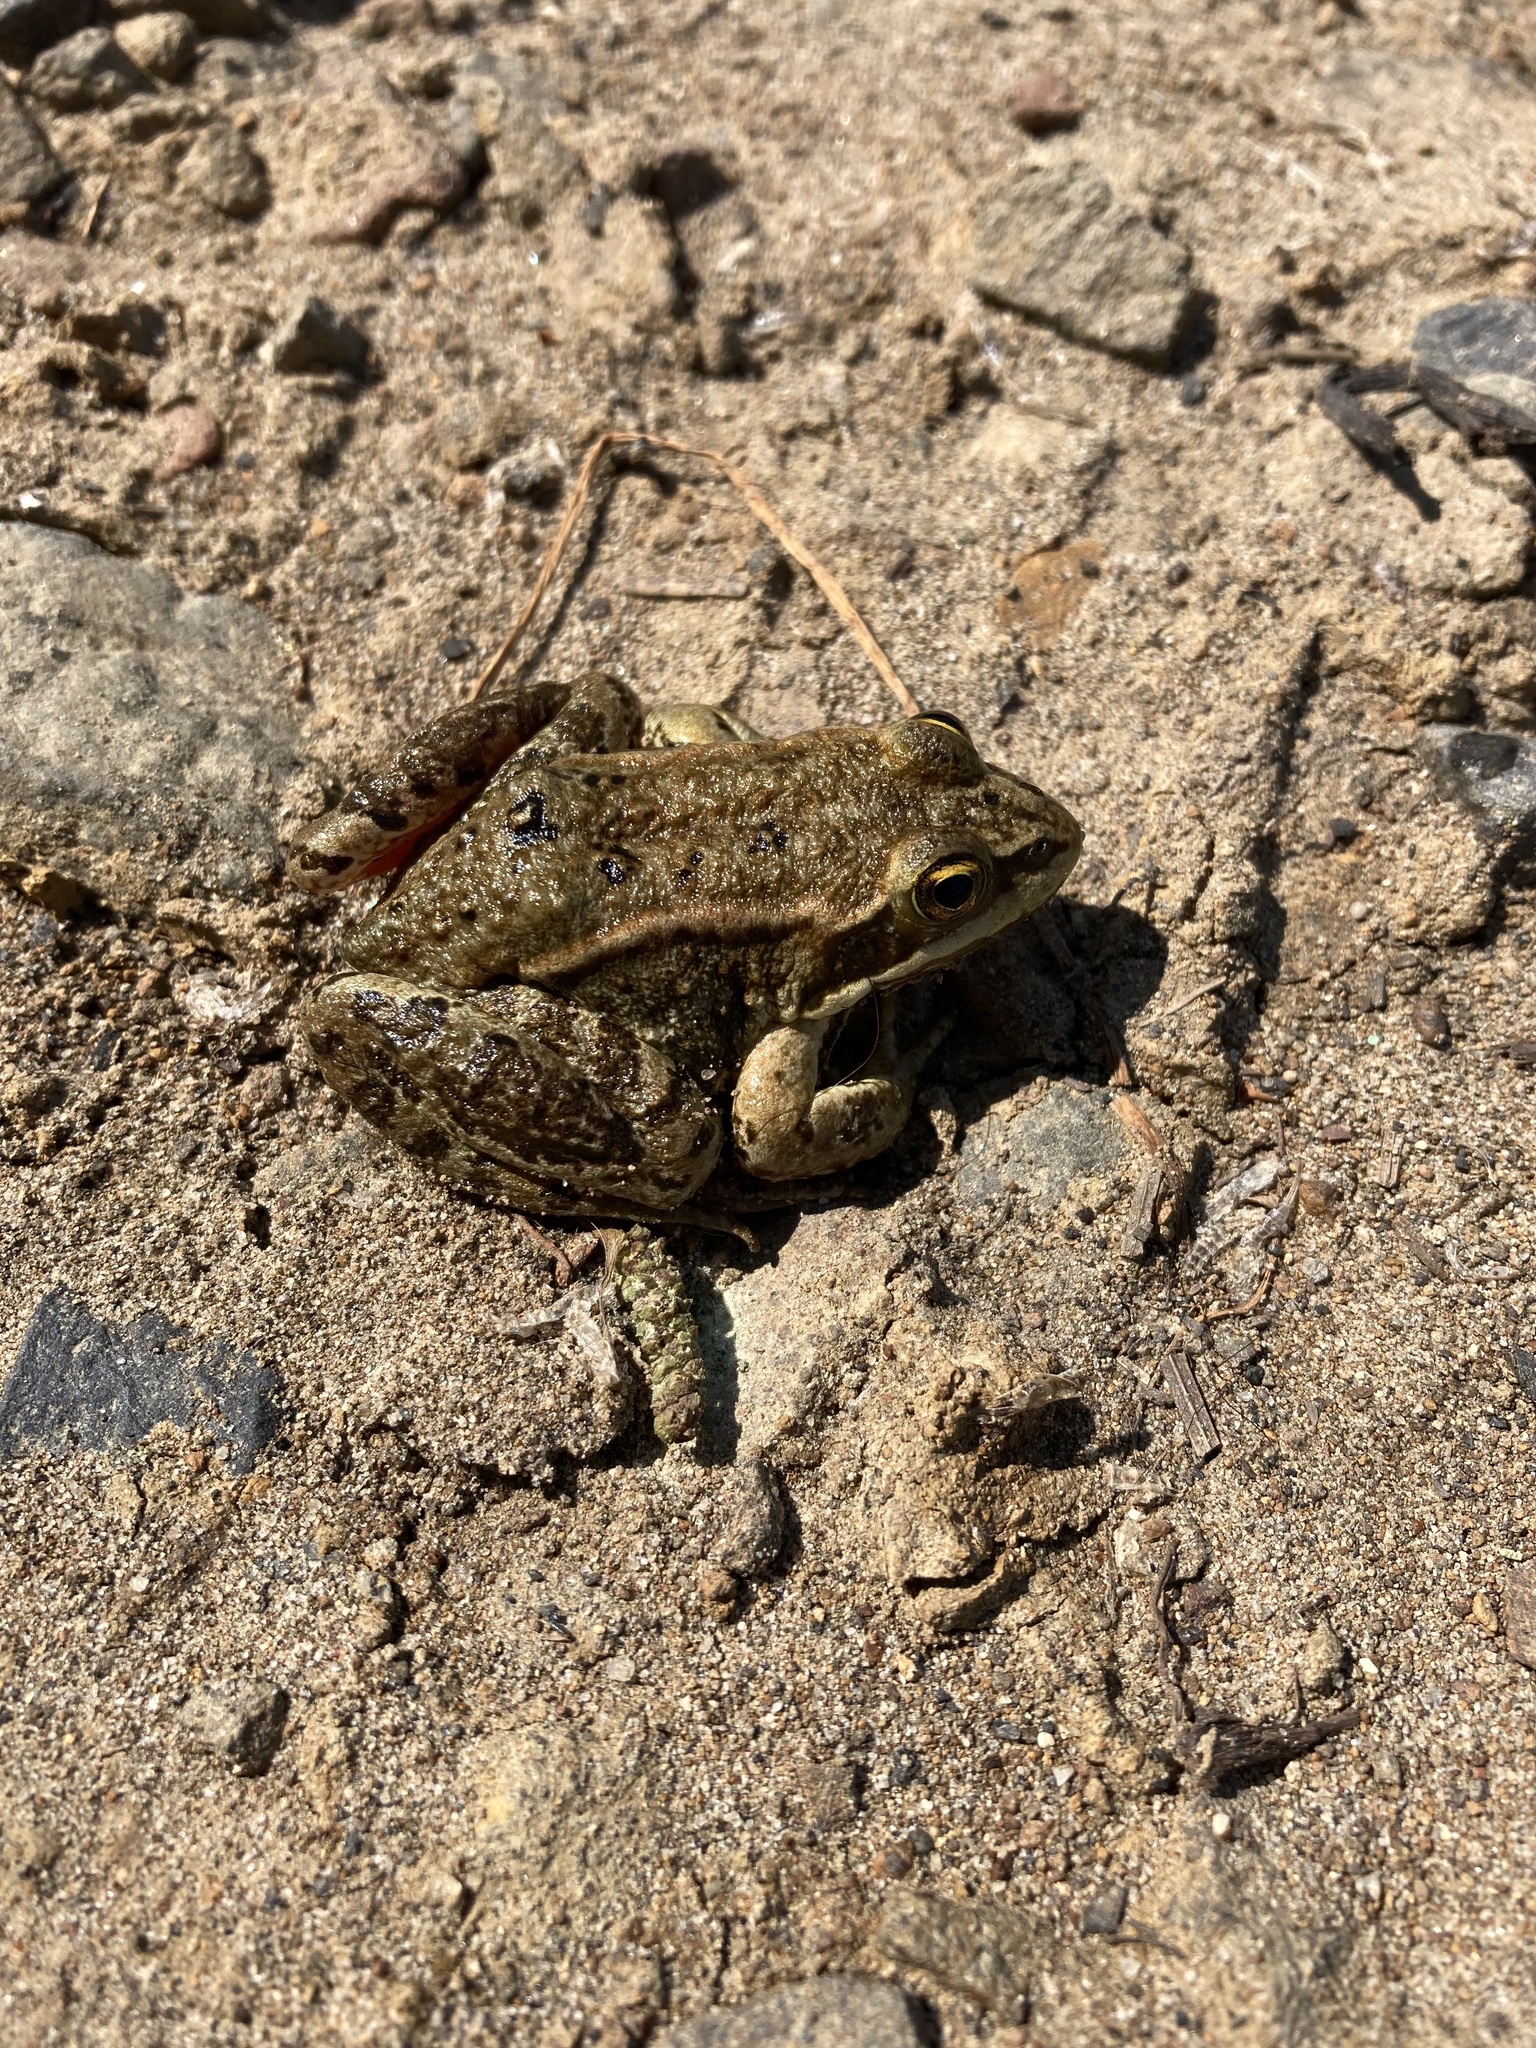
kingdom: Animalia
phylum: Chordata
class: Amphibia
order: Anura
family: Ranidae
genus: Rana
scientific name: Rana luteiventris
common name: Columbia spotted frog
